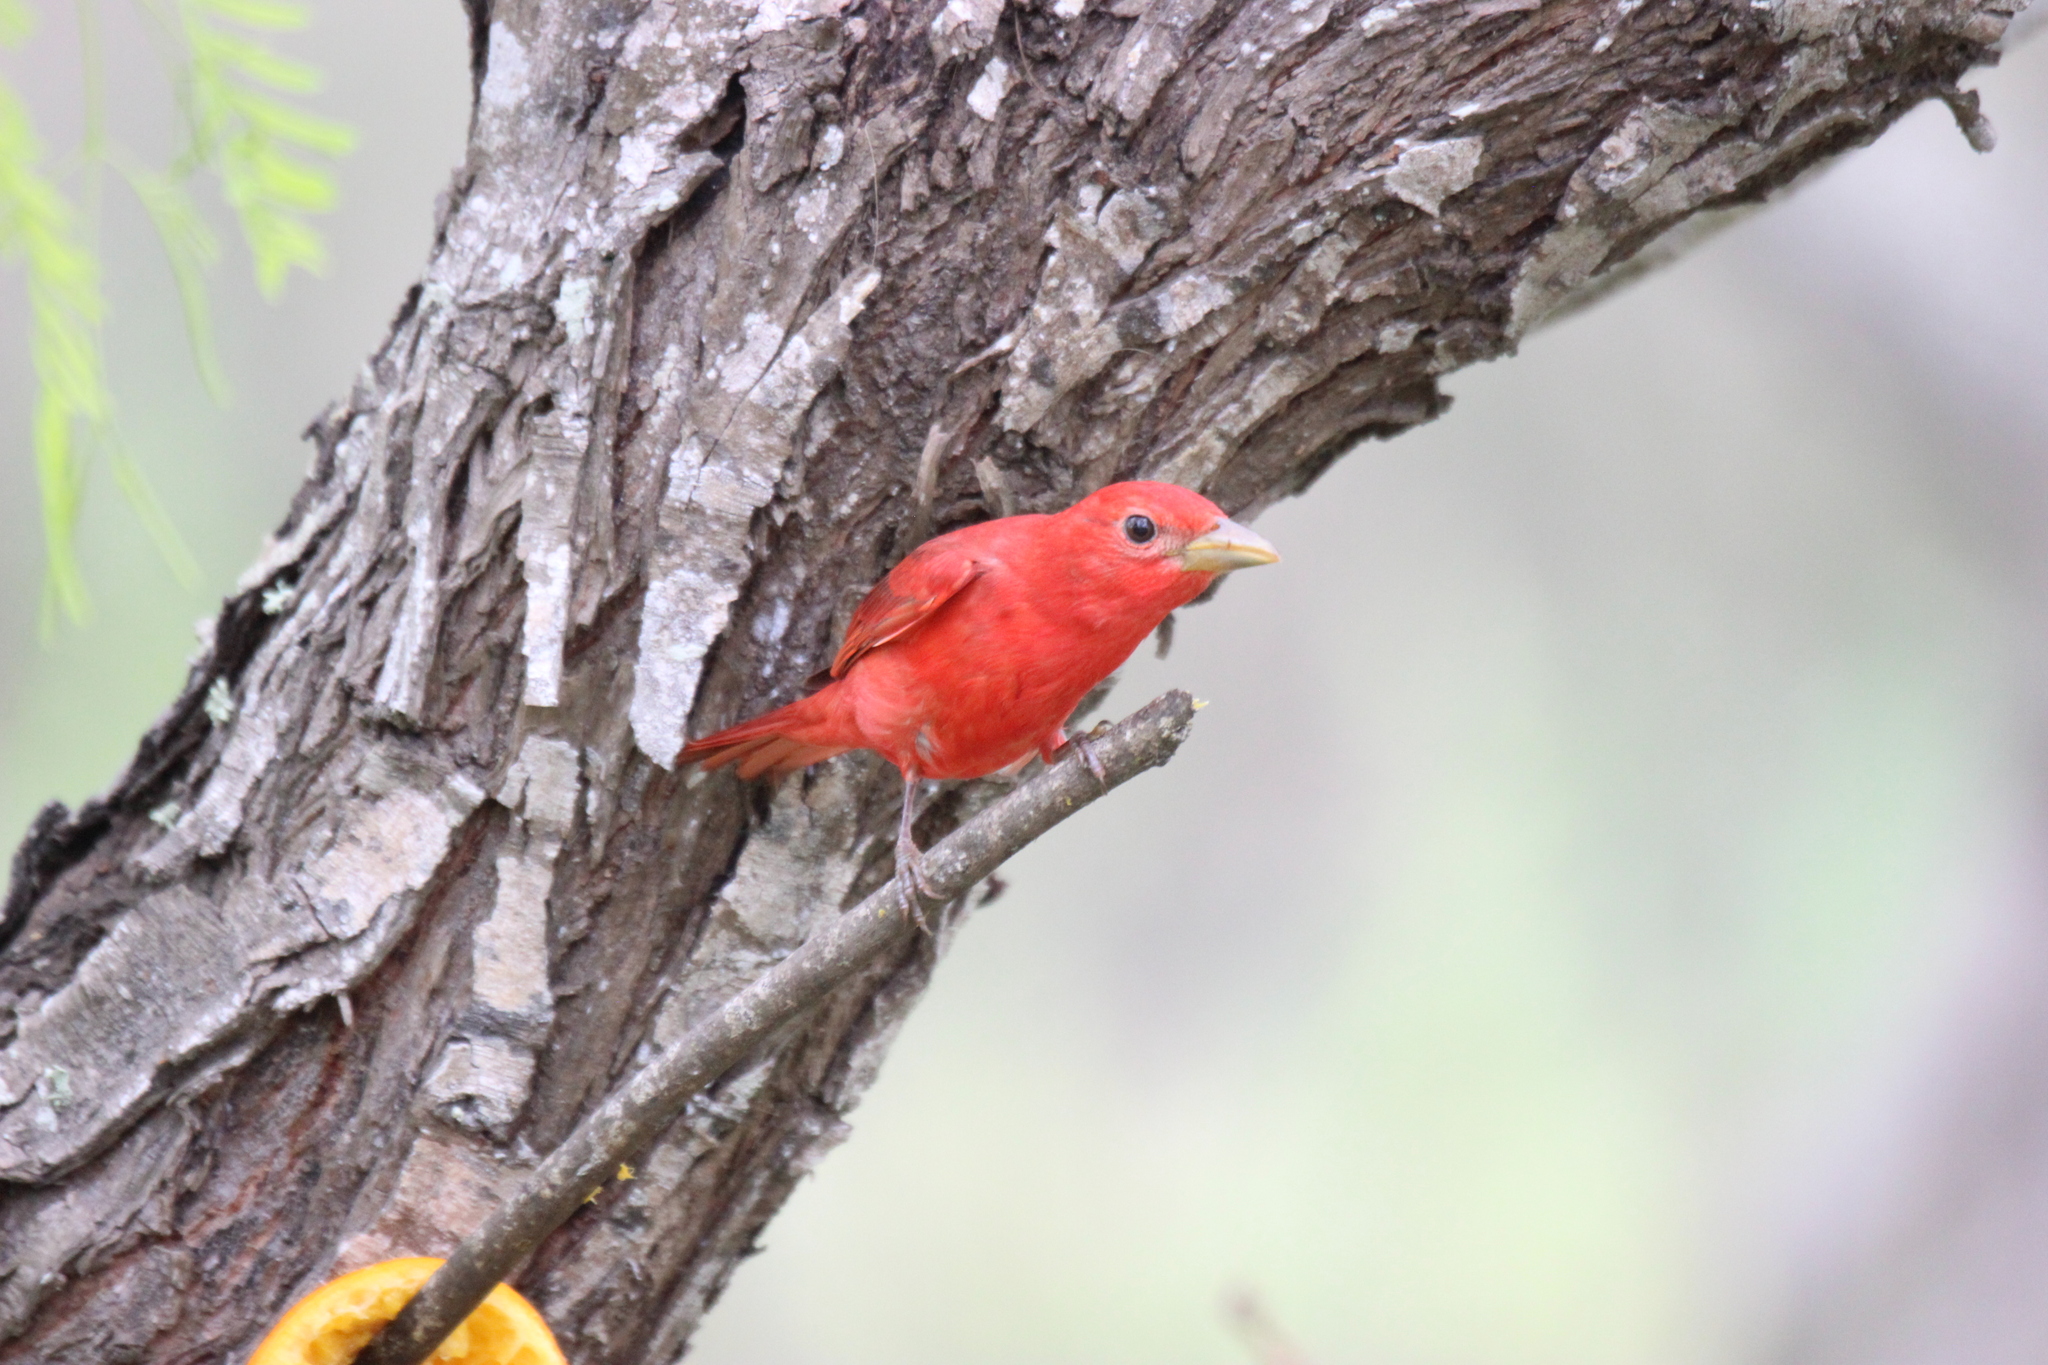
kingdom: Animalia
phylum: Chordata
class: Aves
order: Passeriformes
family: Cardinalidae
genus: Piranga
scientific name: Piranga rubra
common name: Summer tanager
